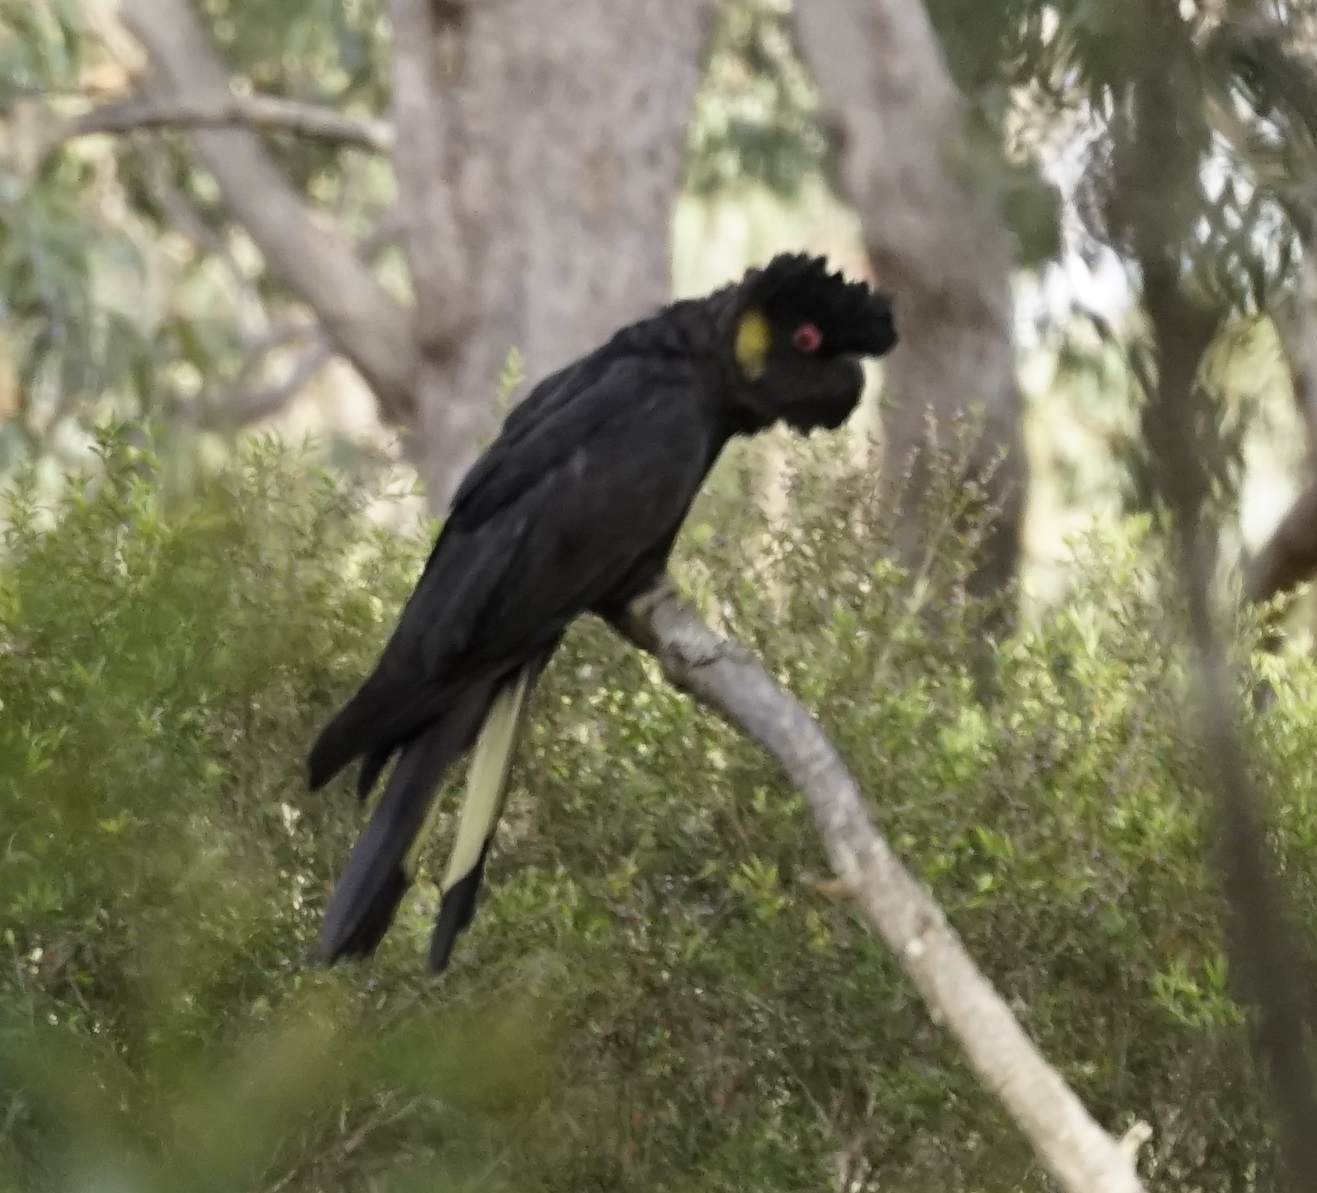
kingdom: Animalia
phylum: Chordata
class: Aves
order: Psittaciformes
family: Cacatuidae
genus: Zanda
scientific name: Zanda funerea
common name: Yellow-tailed black-cockatoo
